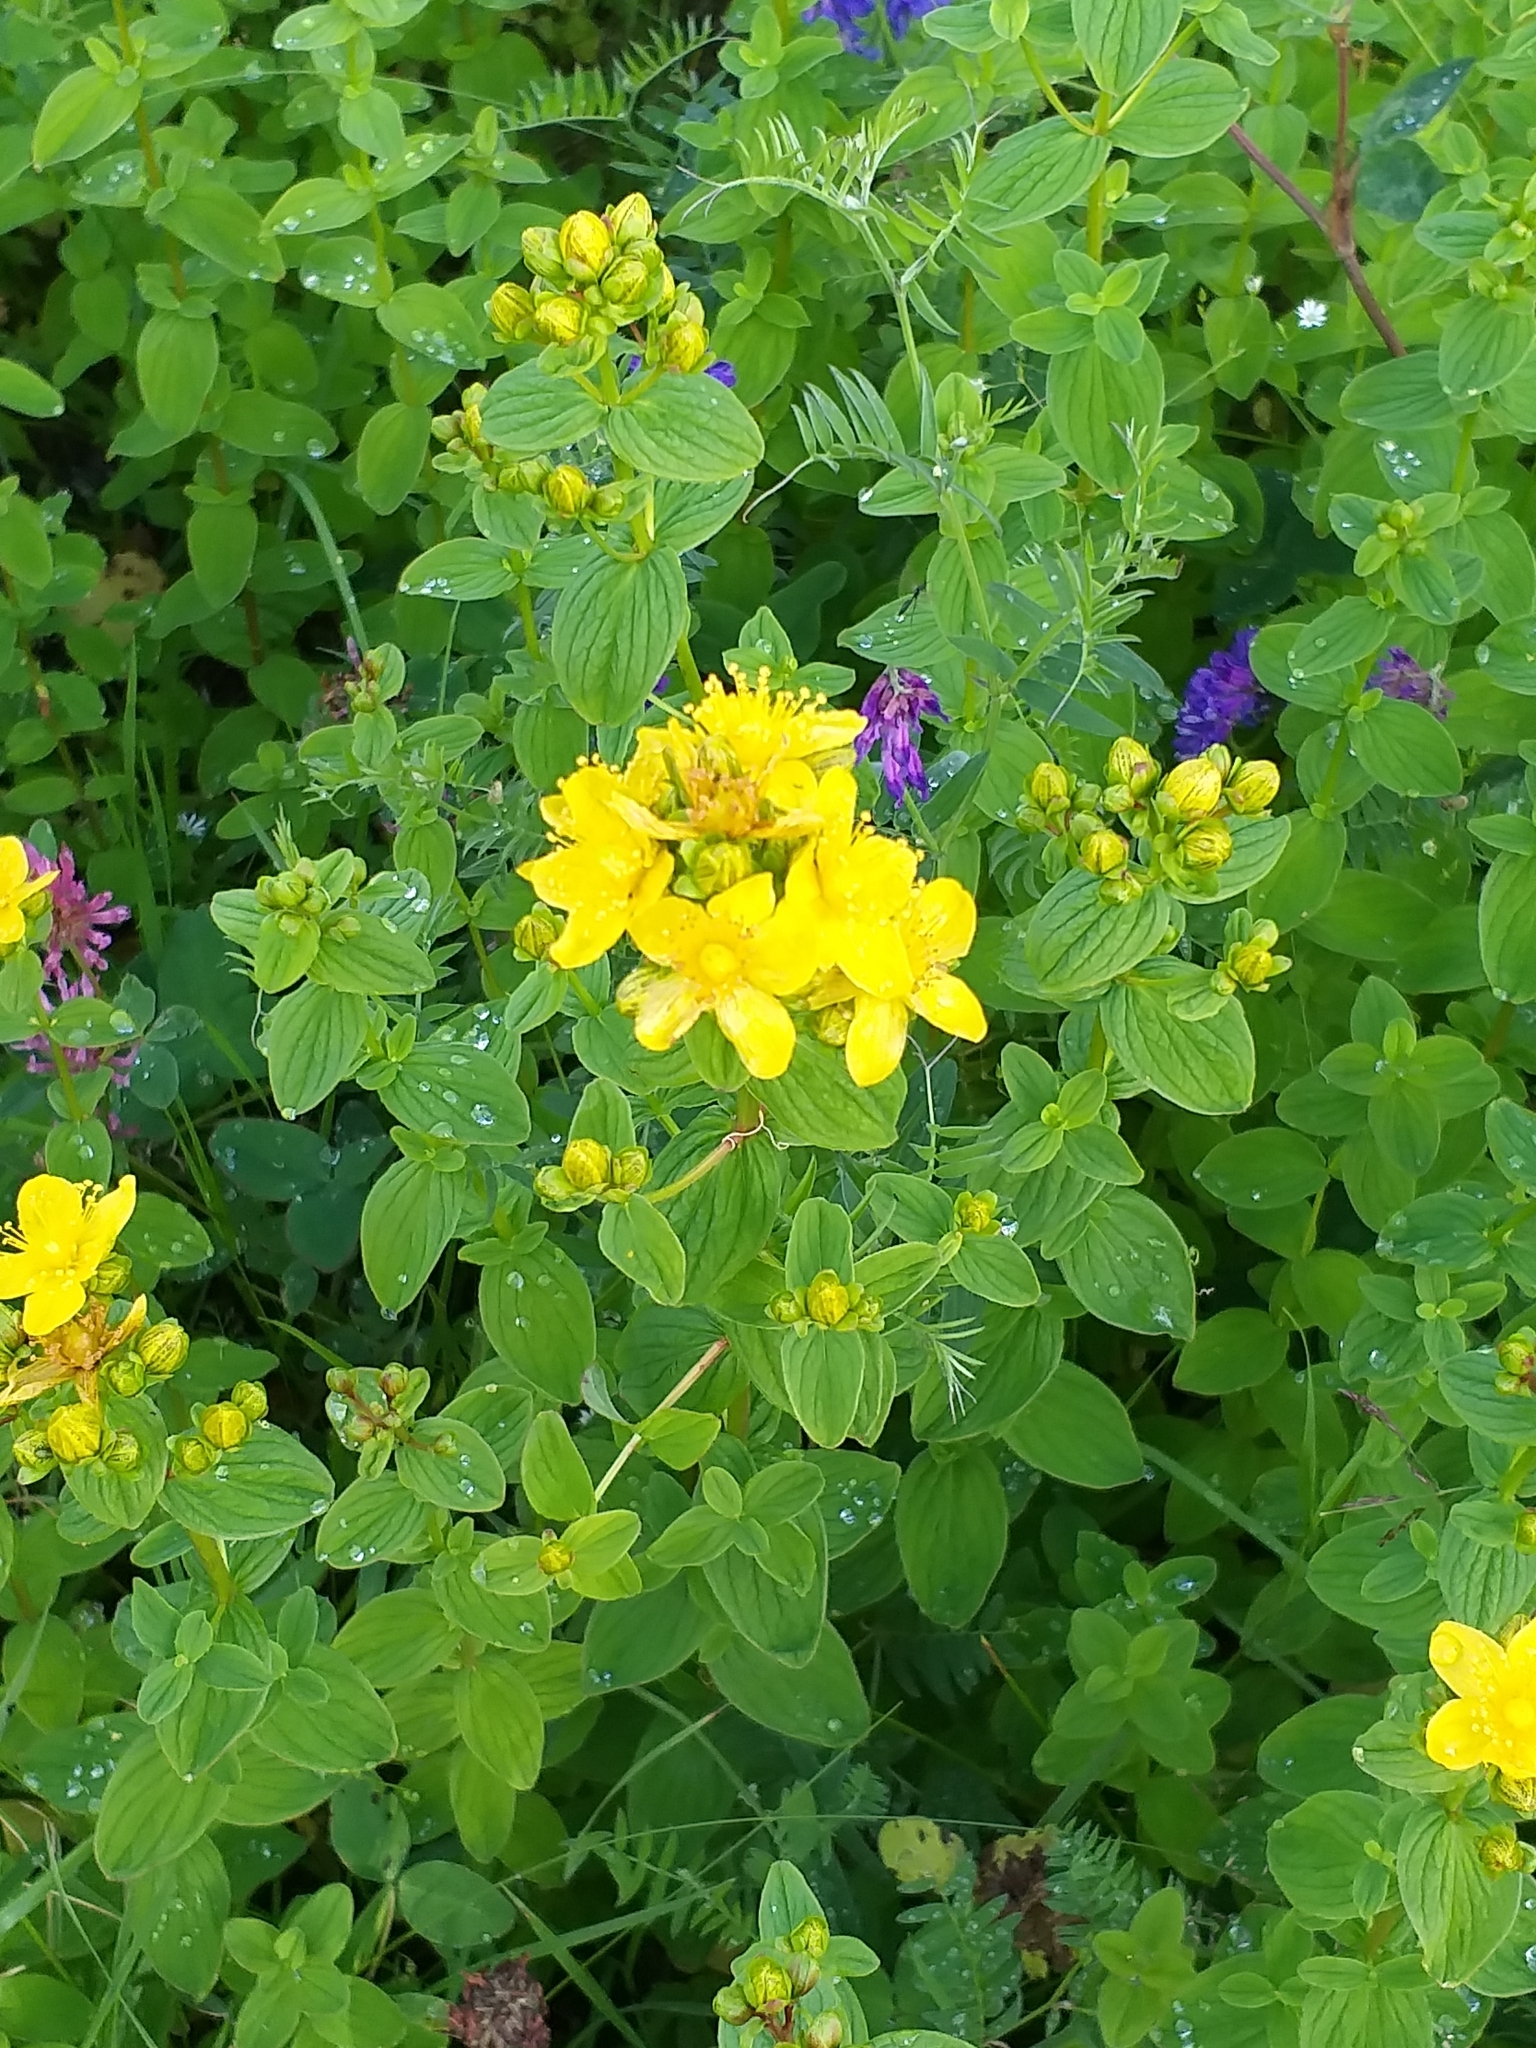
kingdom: Plantae
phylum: Tracheophyta
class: Magnoliopsida
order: Malpighiales
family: Hypericaceae
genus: Hypericum
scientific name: Hypericum maculatum
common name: Imperforate st. john's-wort
